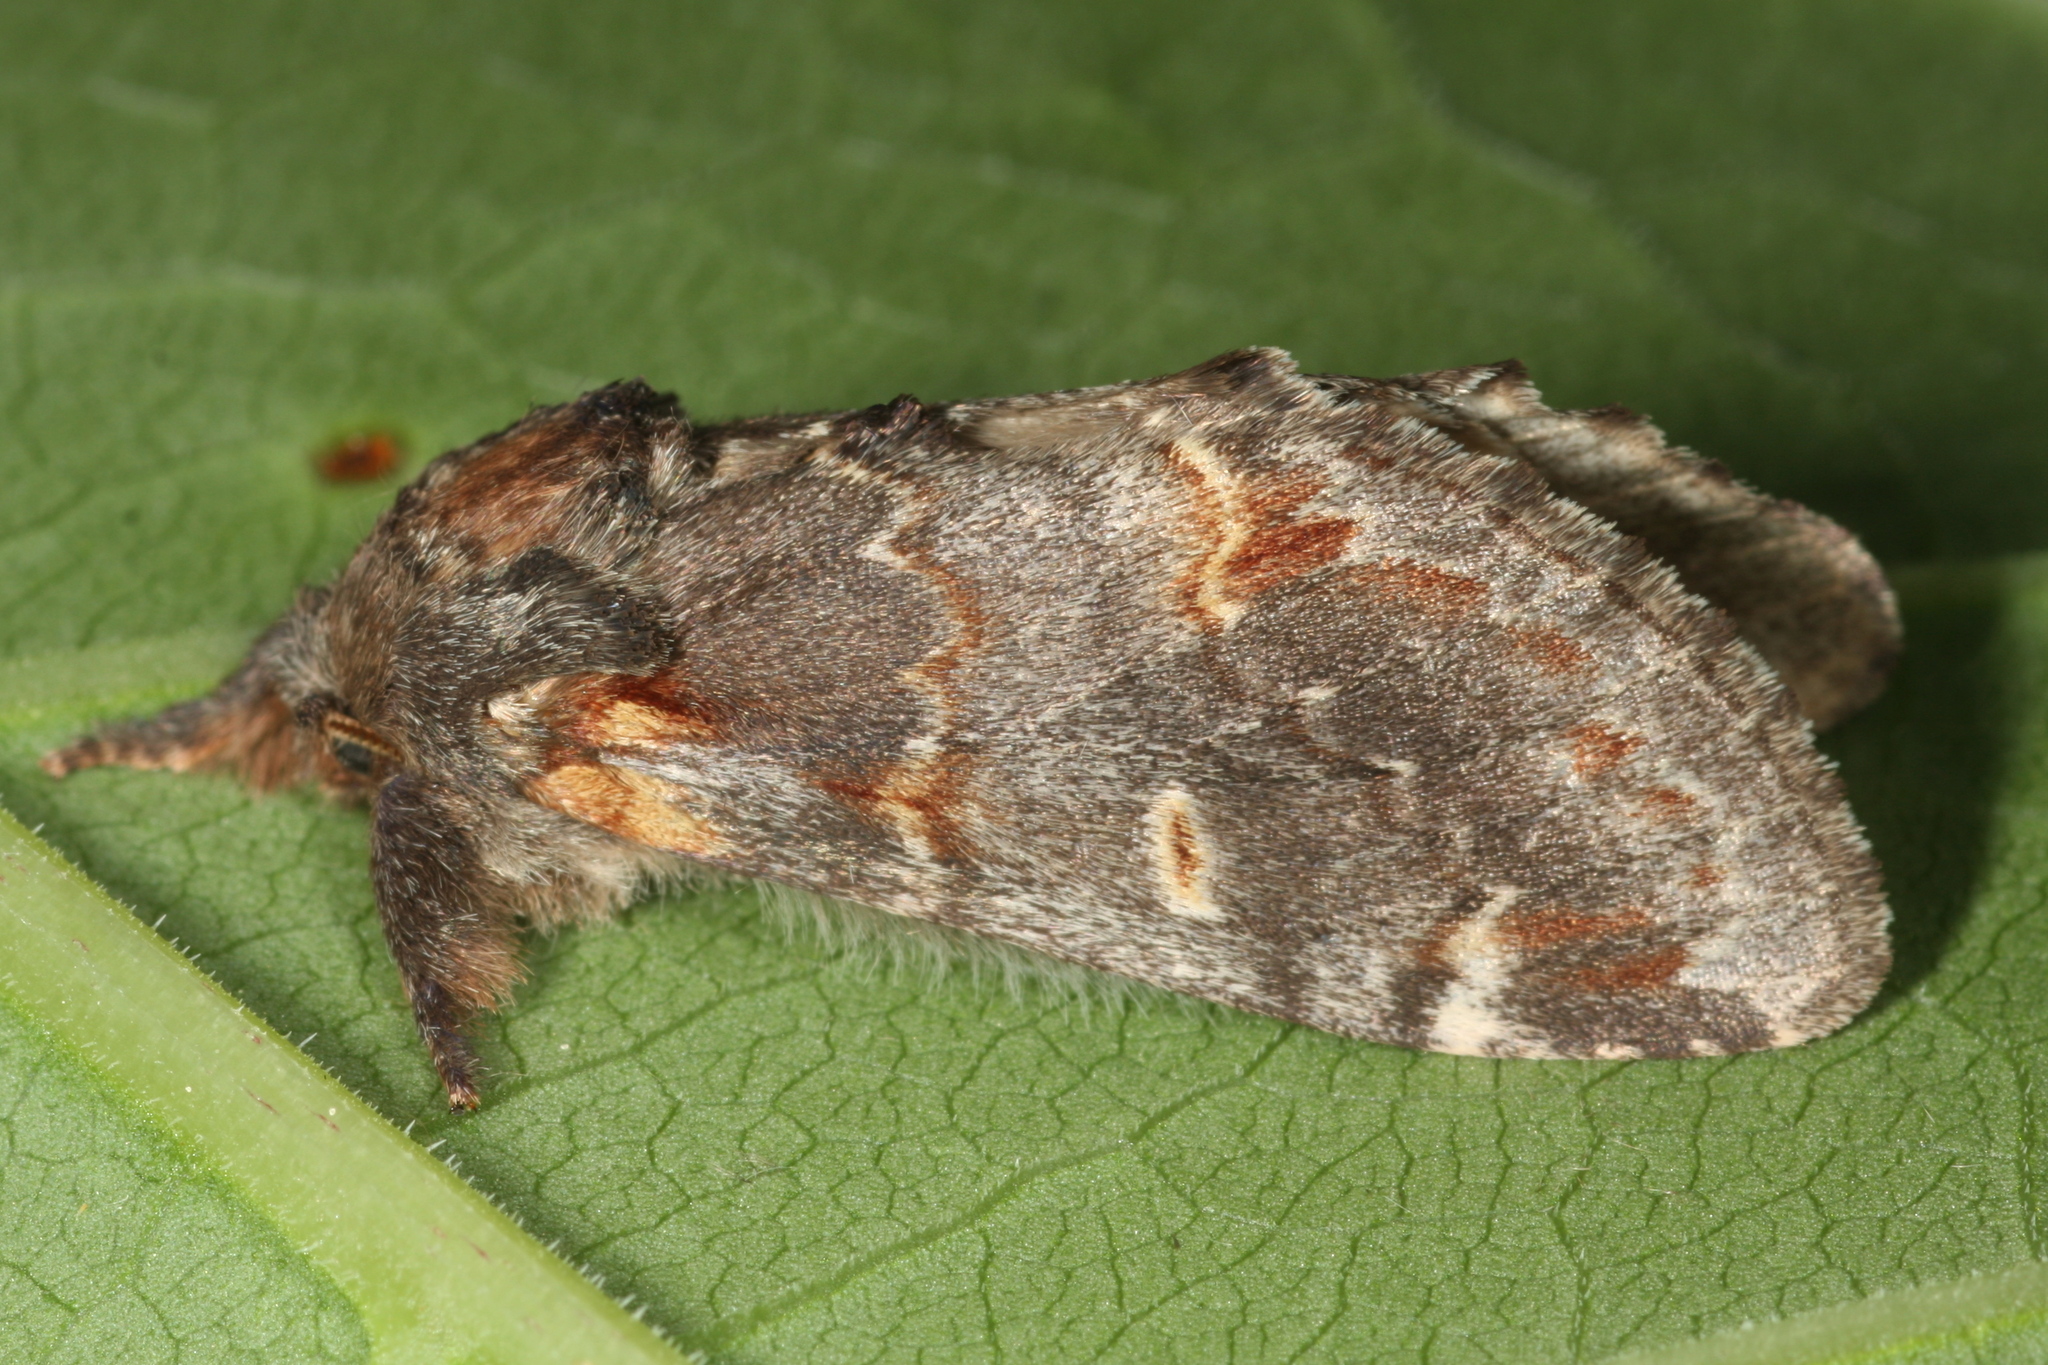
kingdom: Animalia
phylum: Arthropoda
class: Insecta
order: Lepidoptera
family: Notodontidae
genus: Notodonta
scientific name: Notodonta dromedarius
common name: Iron prominent
